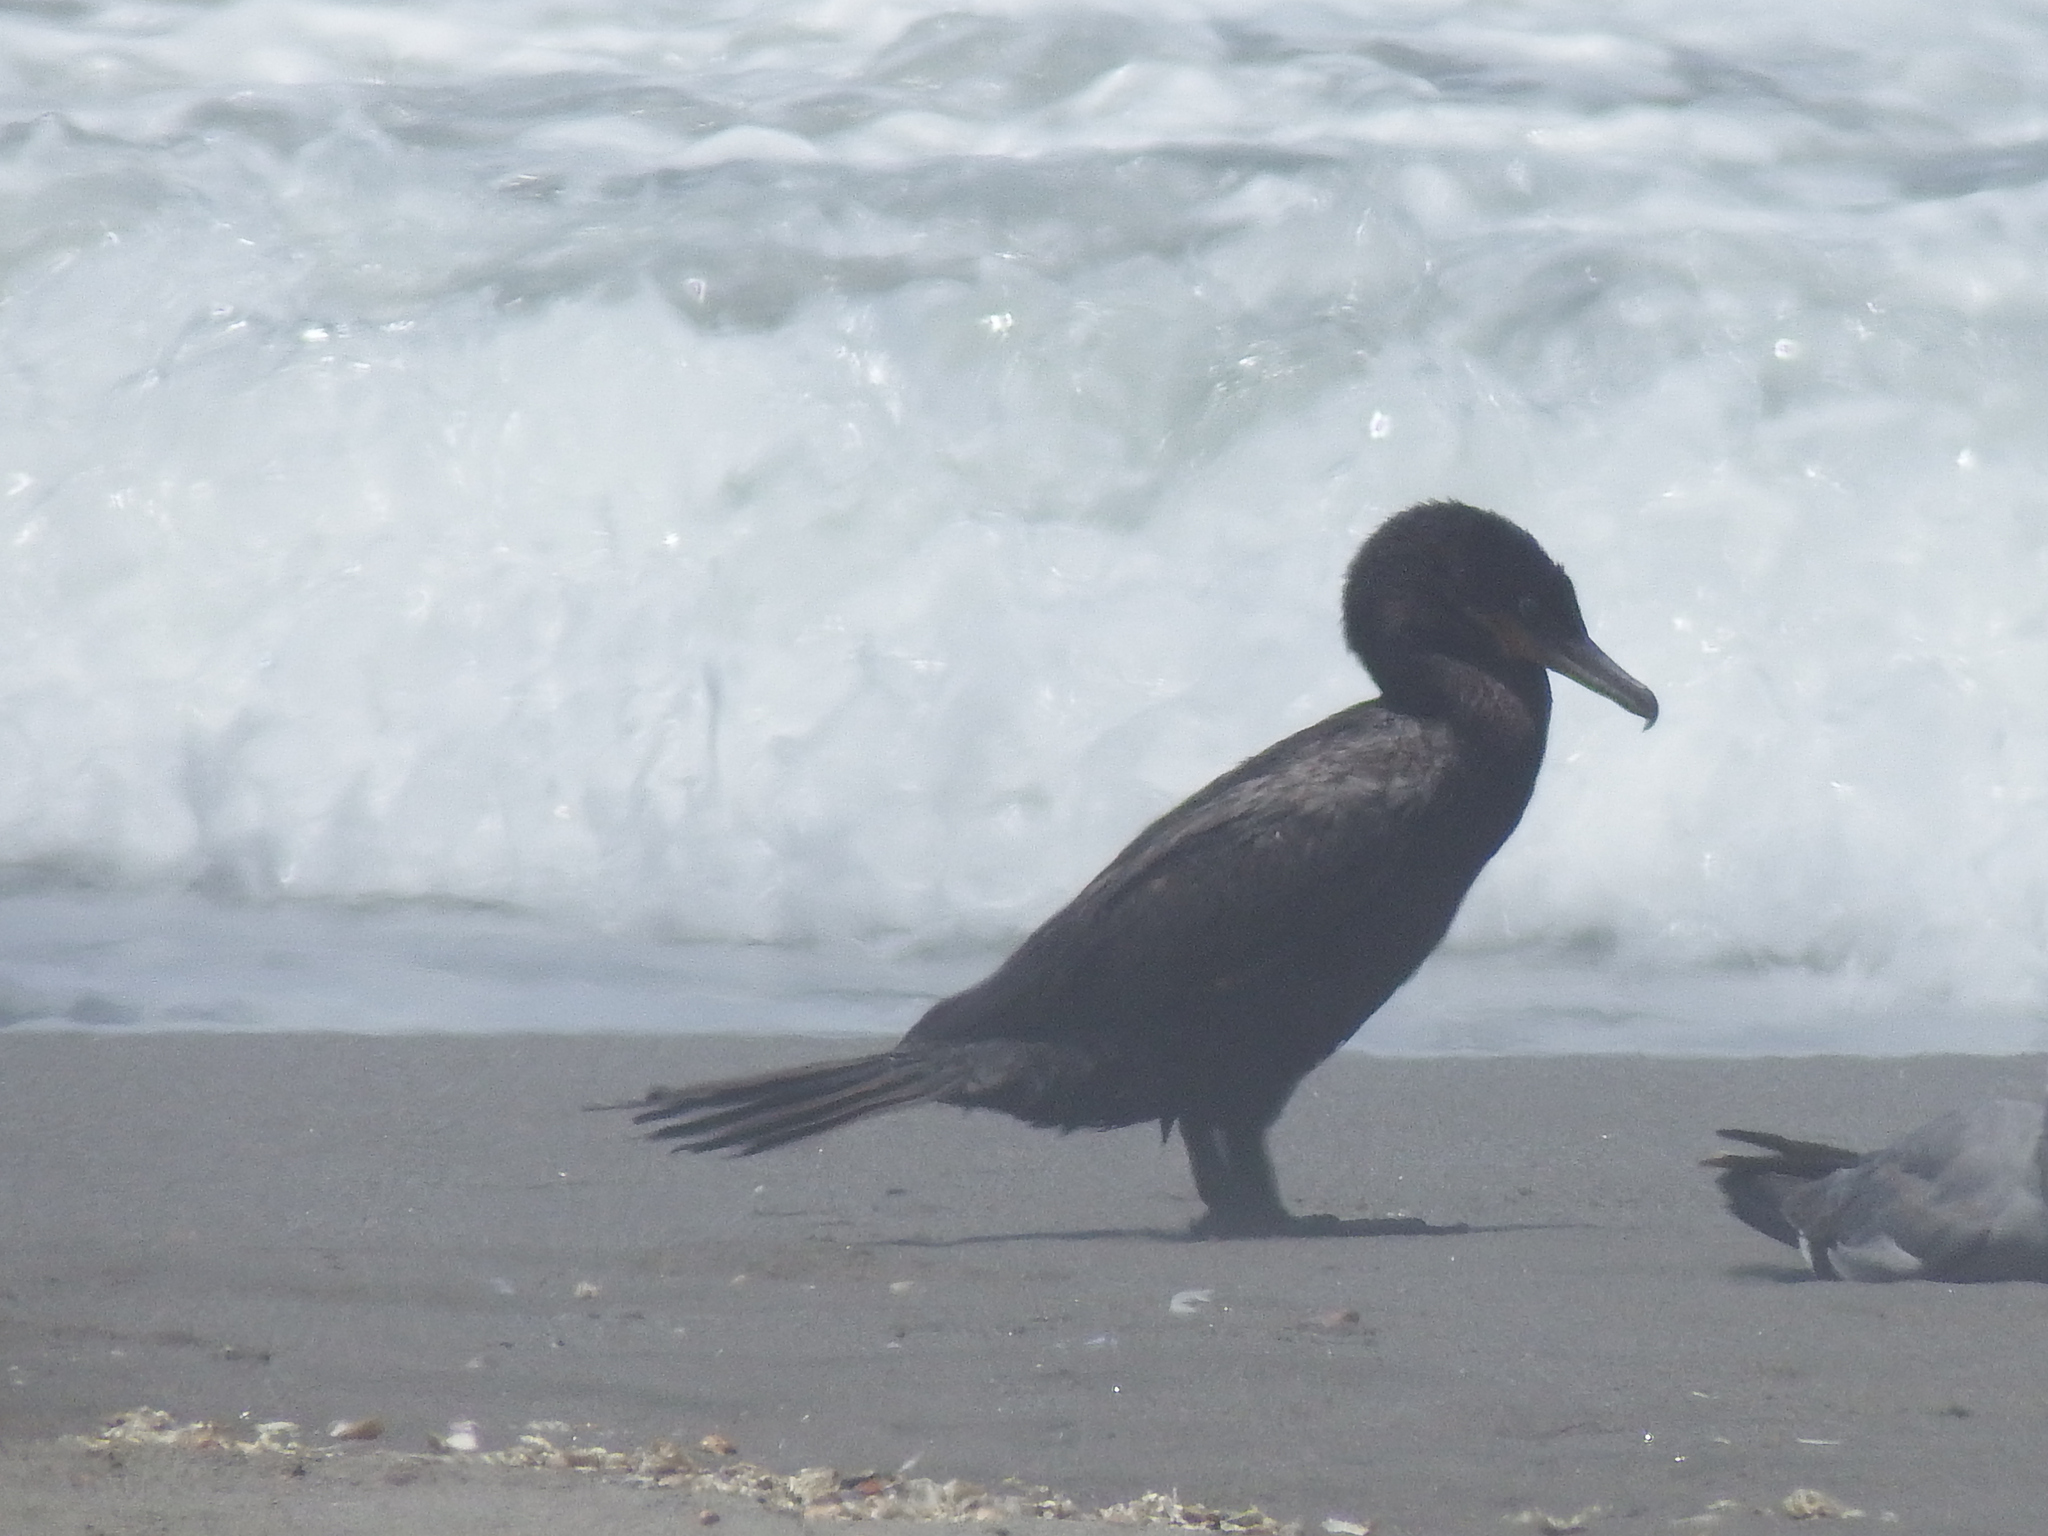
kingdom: Animalia
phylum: Chordata
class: Aves
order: Suliformes
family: Phalacrocoracidae
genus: Phalacrocorax
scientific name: Phalacrocorax brasilianus
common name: Neotropic cormorant
